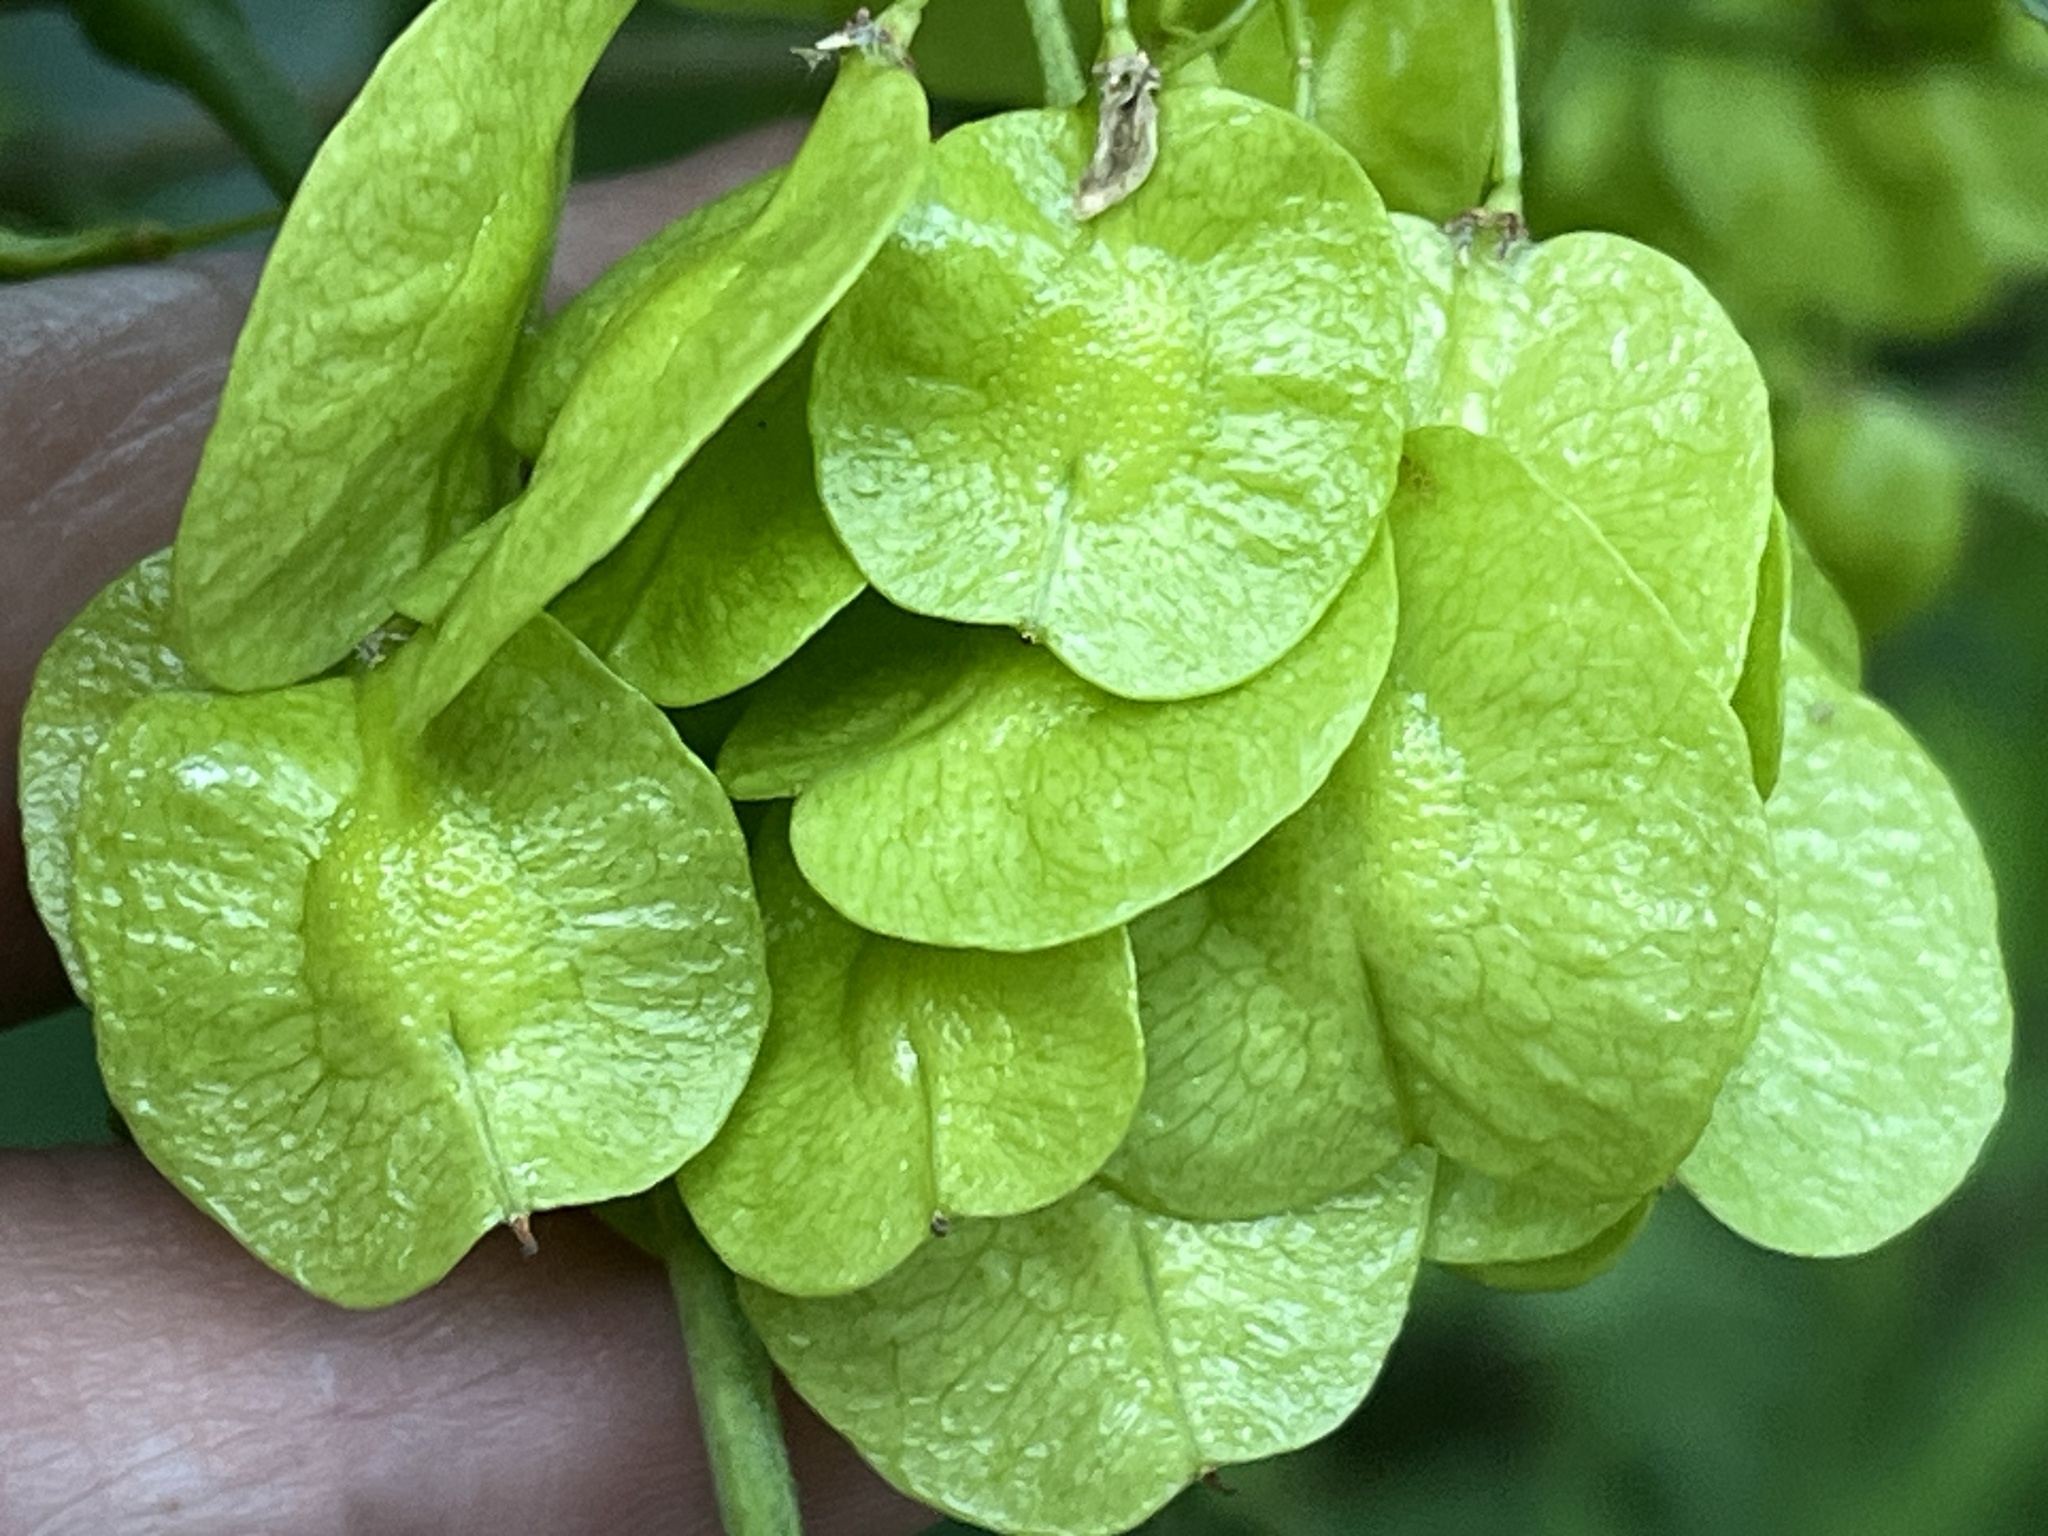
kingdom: Plantae
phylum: Tracheophyta
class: Magnoliopsida
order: Sapindales
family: Rutaceae
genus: Ptelea
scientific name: Ptelea trifoliata
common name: Common hop-tree
